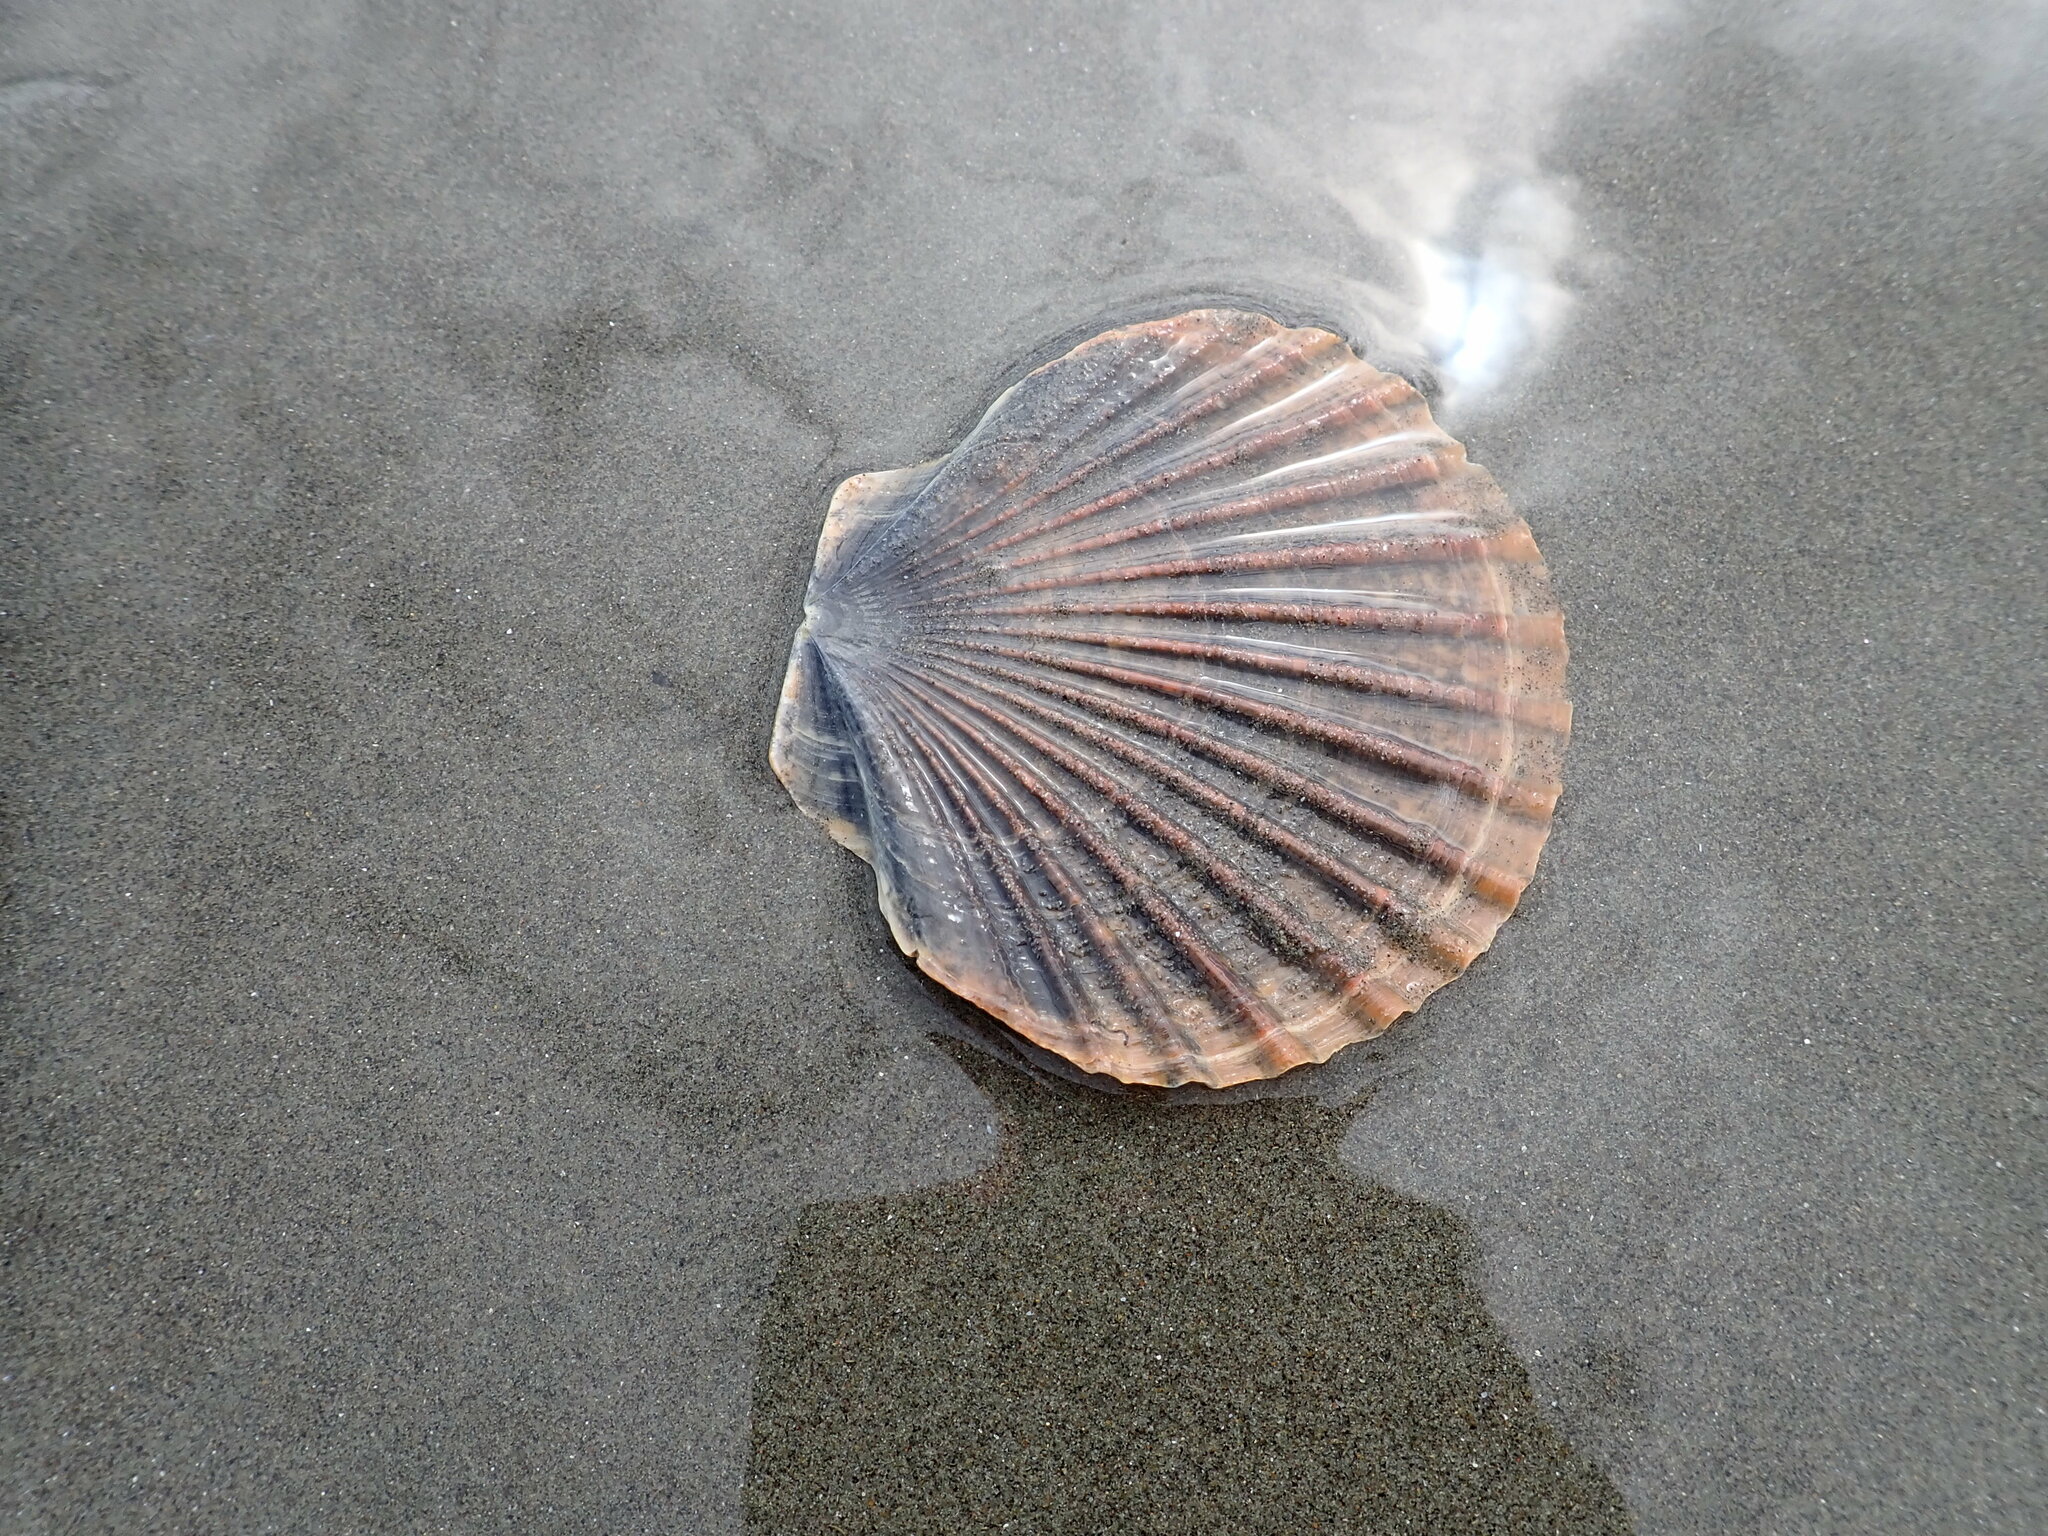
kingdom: Animalia
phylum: Mollusca
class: Bivalvia
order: Pectinida
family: Pectinidae
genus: Pecten
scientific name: Pecten novaezelandiae
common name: New zealand scallop
